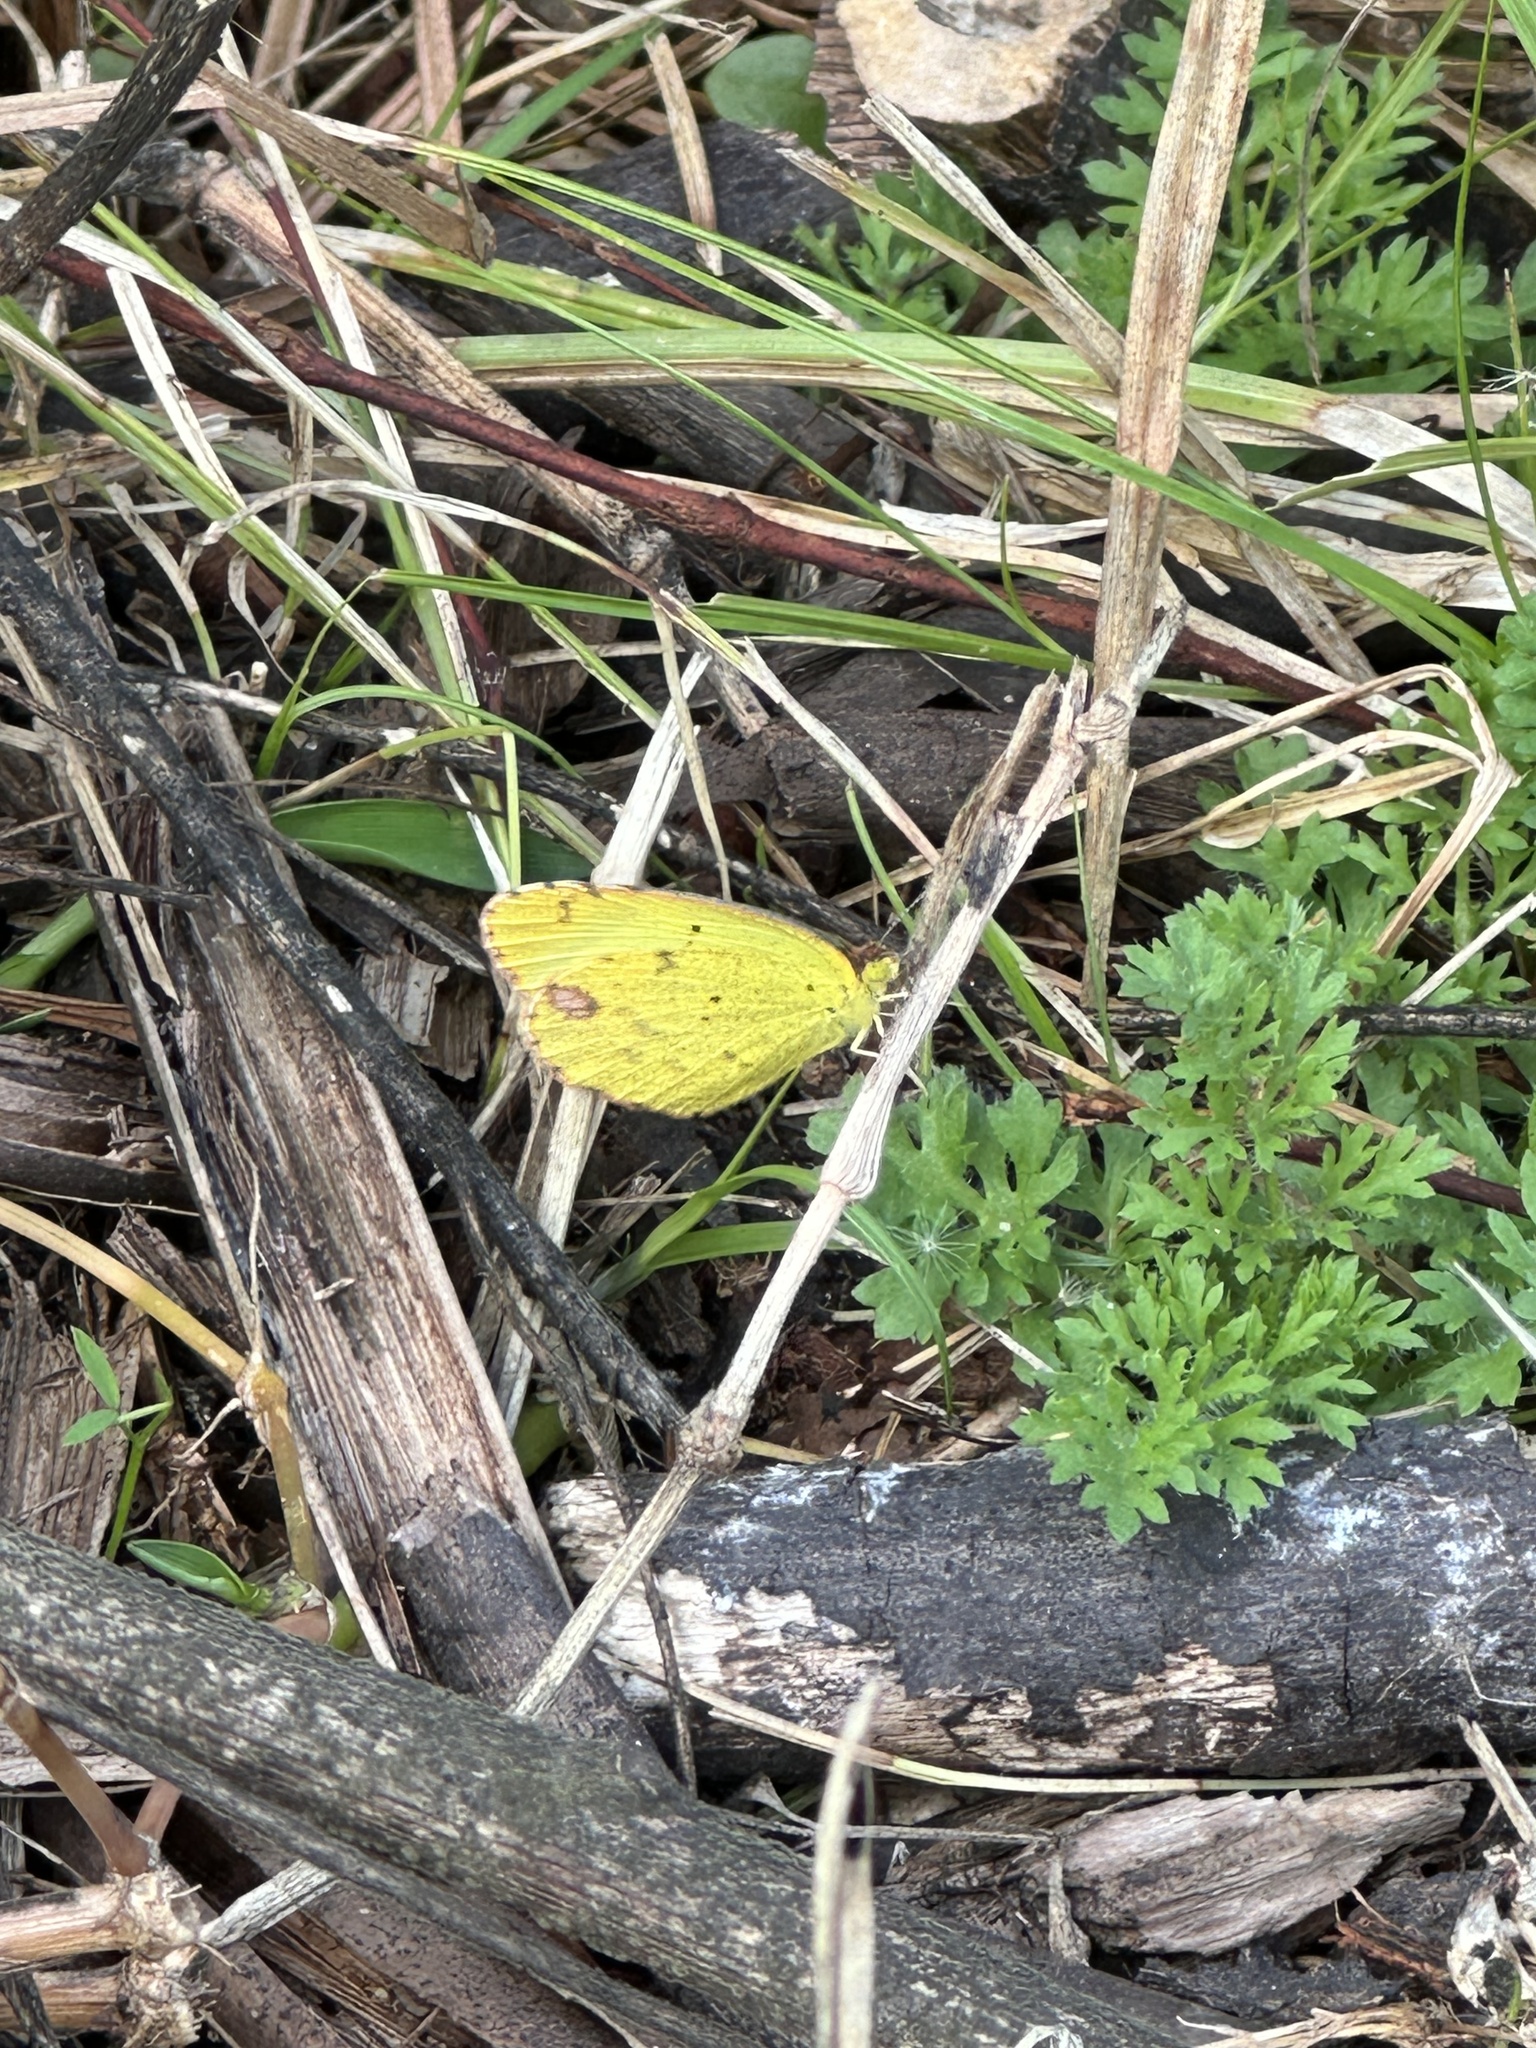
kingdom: Animalia
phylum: Arthropoda
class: Insecta
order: Lepidoptera
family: Pieridae
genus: Pyrisitia
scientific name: Pyrisitia lisa
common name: Little yellow
